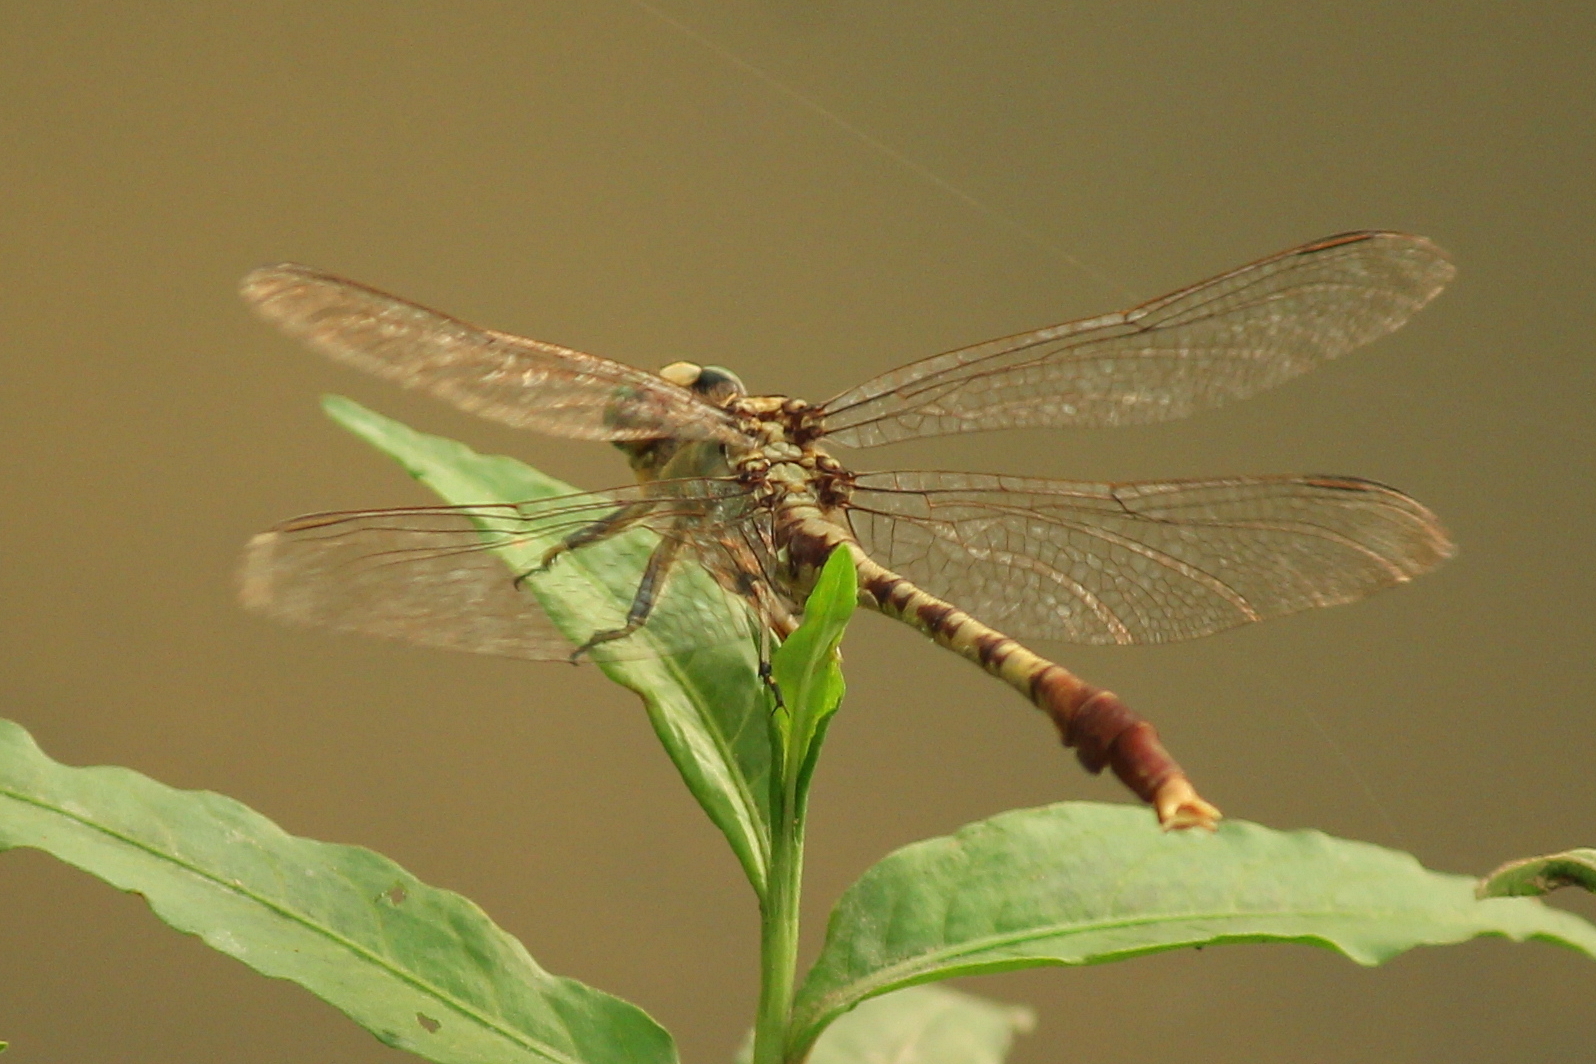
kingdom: Animalia
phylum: Arthropoda
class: Insecta
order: Odonata
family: Gomphidae
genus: Arigomphus
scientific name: Arigomphus submedianus
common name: Jade clubtail
